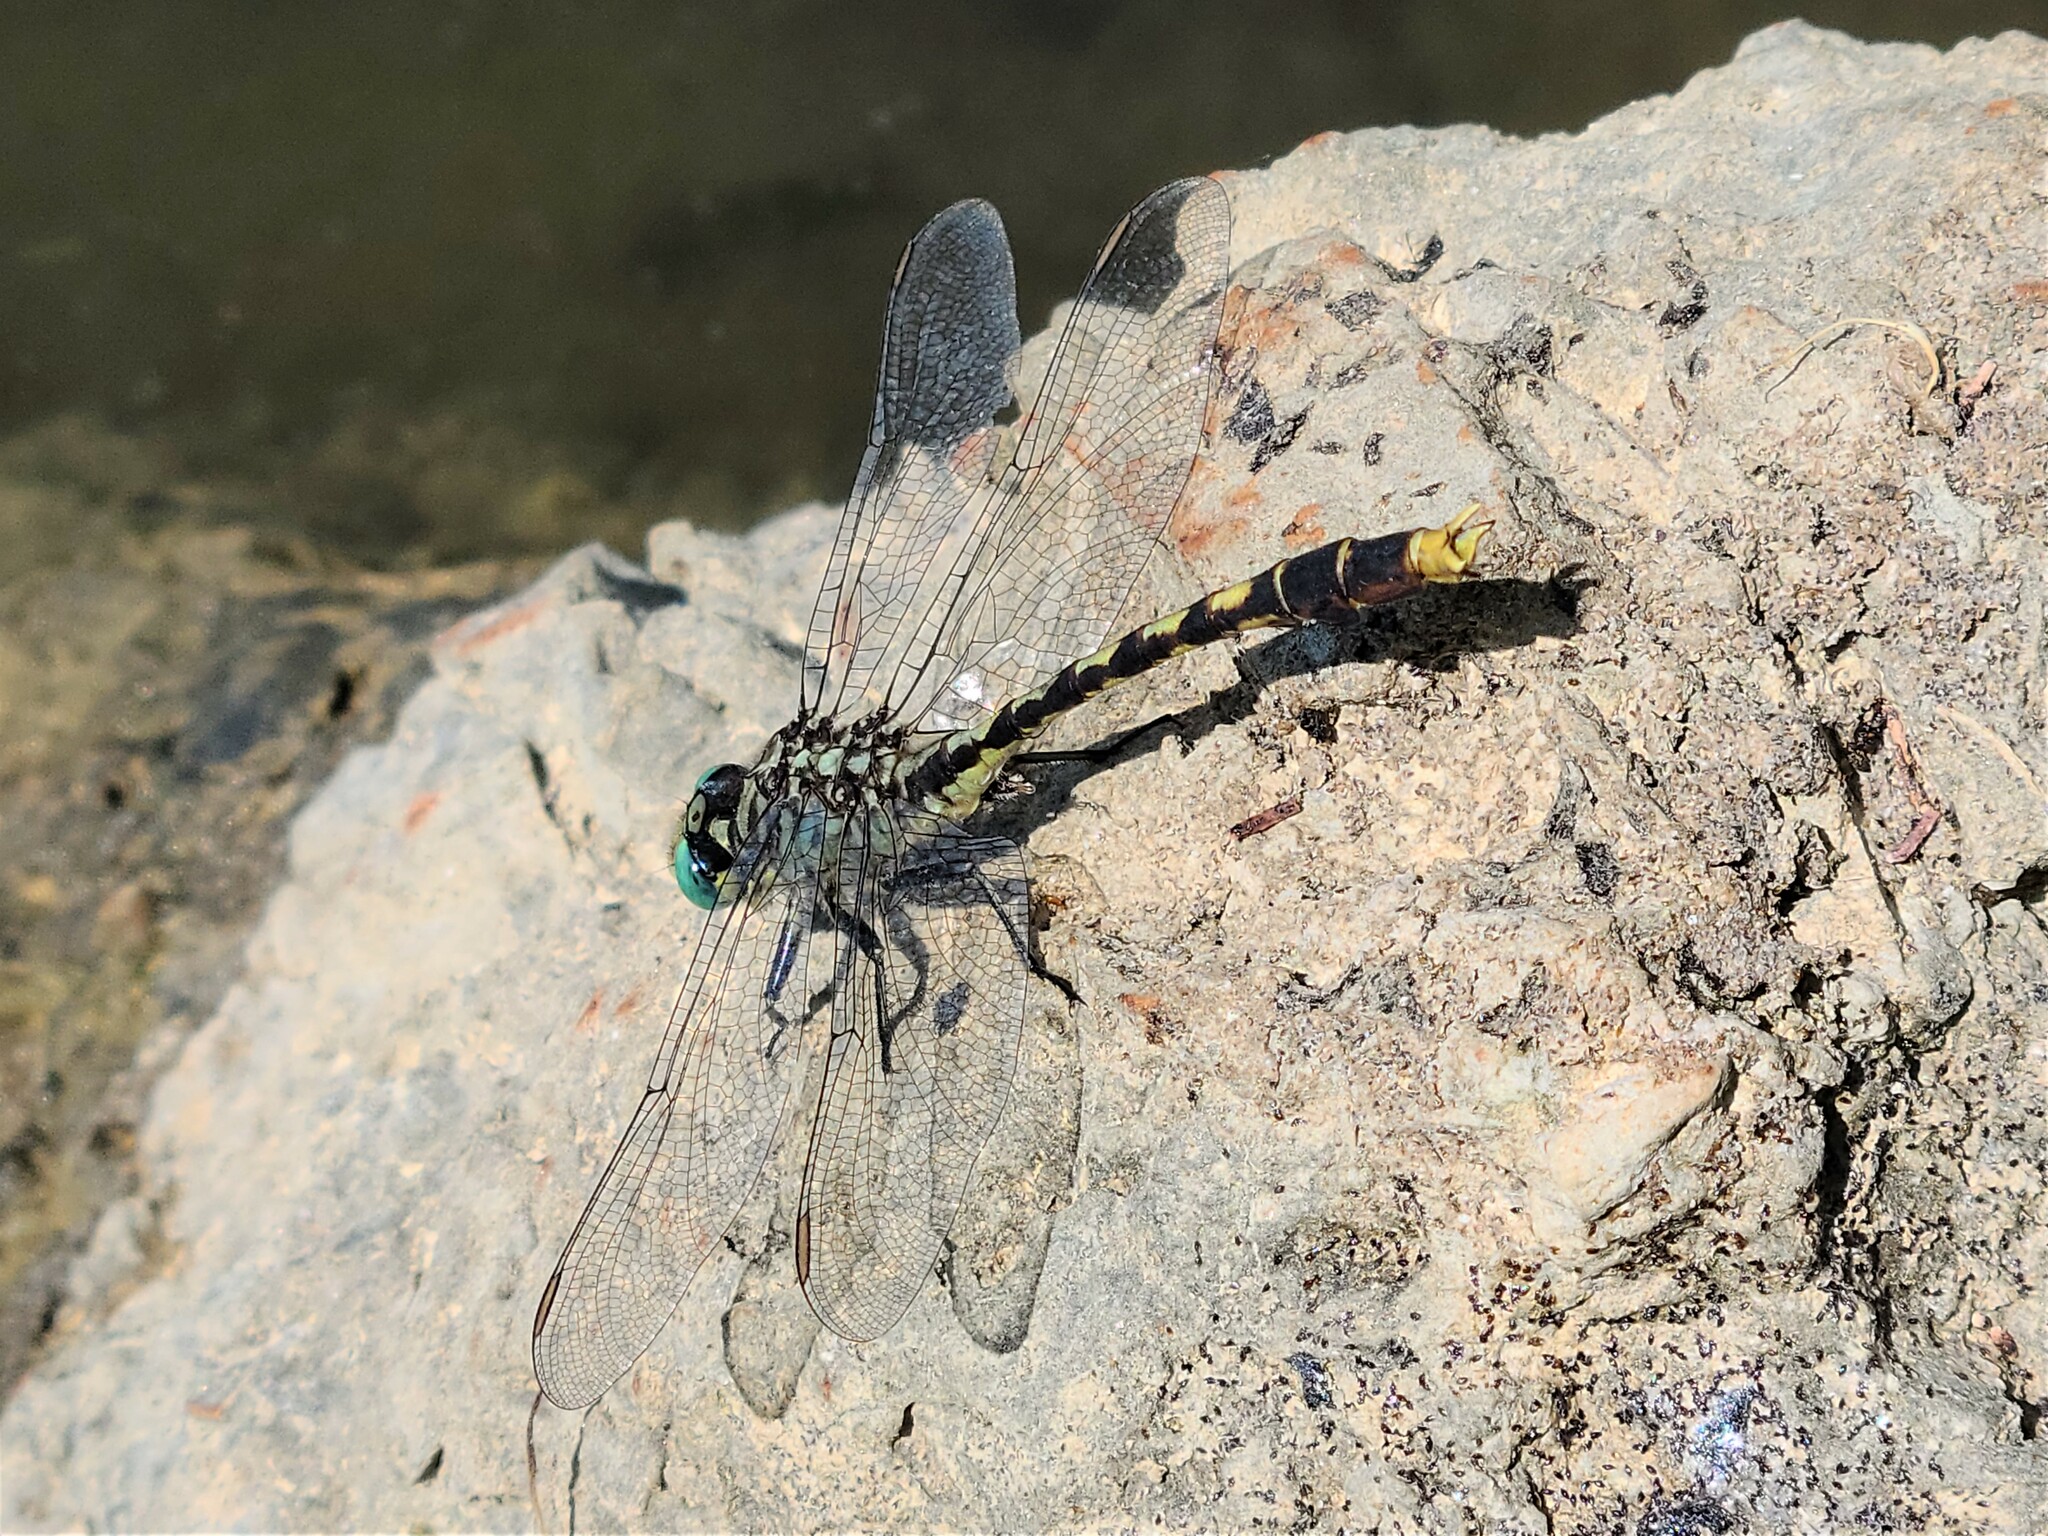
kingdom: Animalia
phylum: Arthropoda
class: Insecta
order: Odonata
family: Gomphidae
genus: Arigomphus
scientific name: Arigomphus villosipes
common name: Unicorn clubtail
